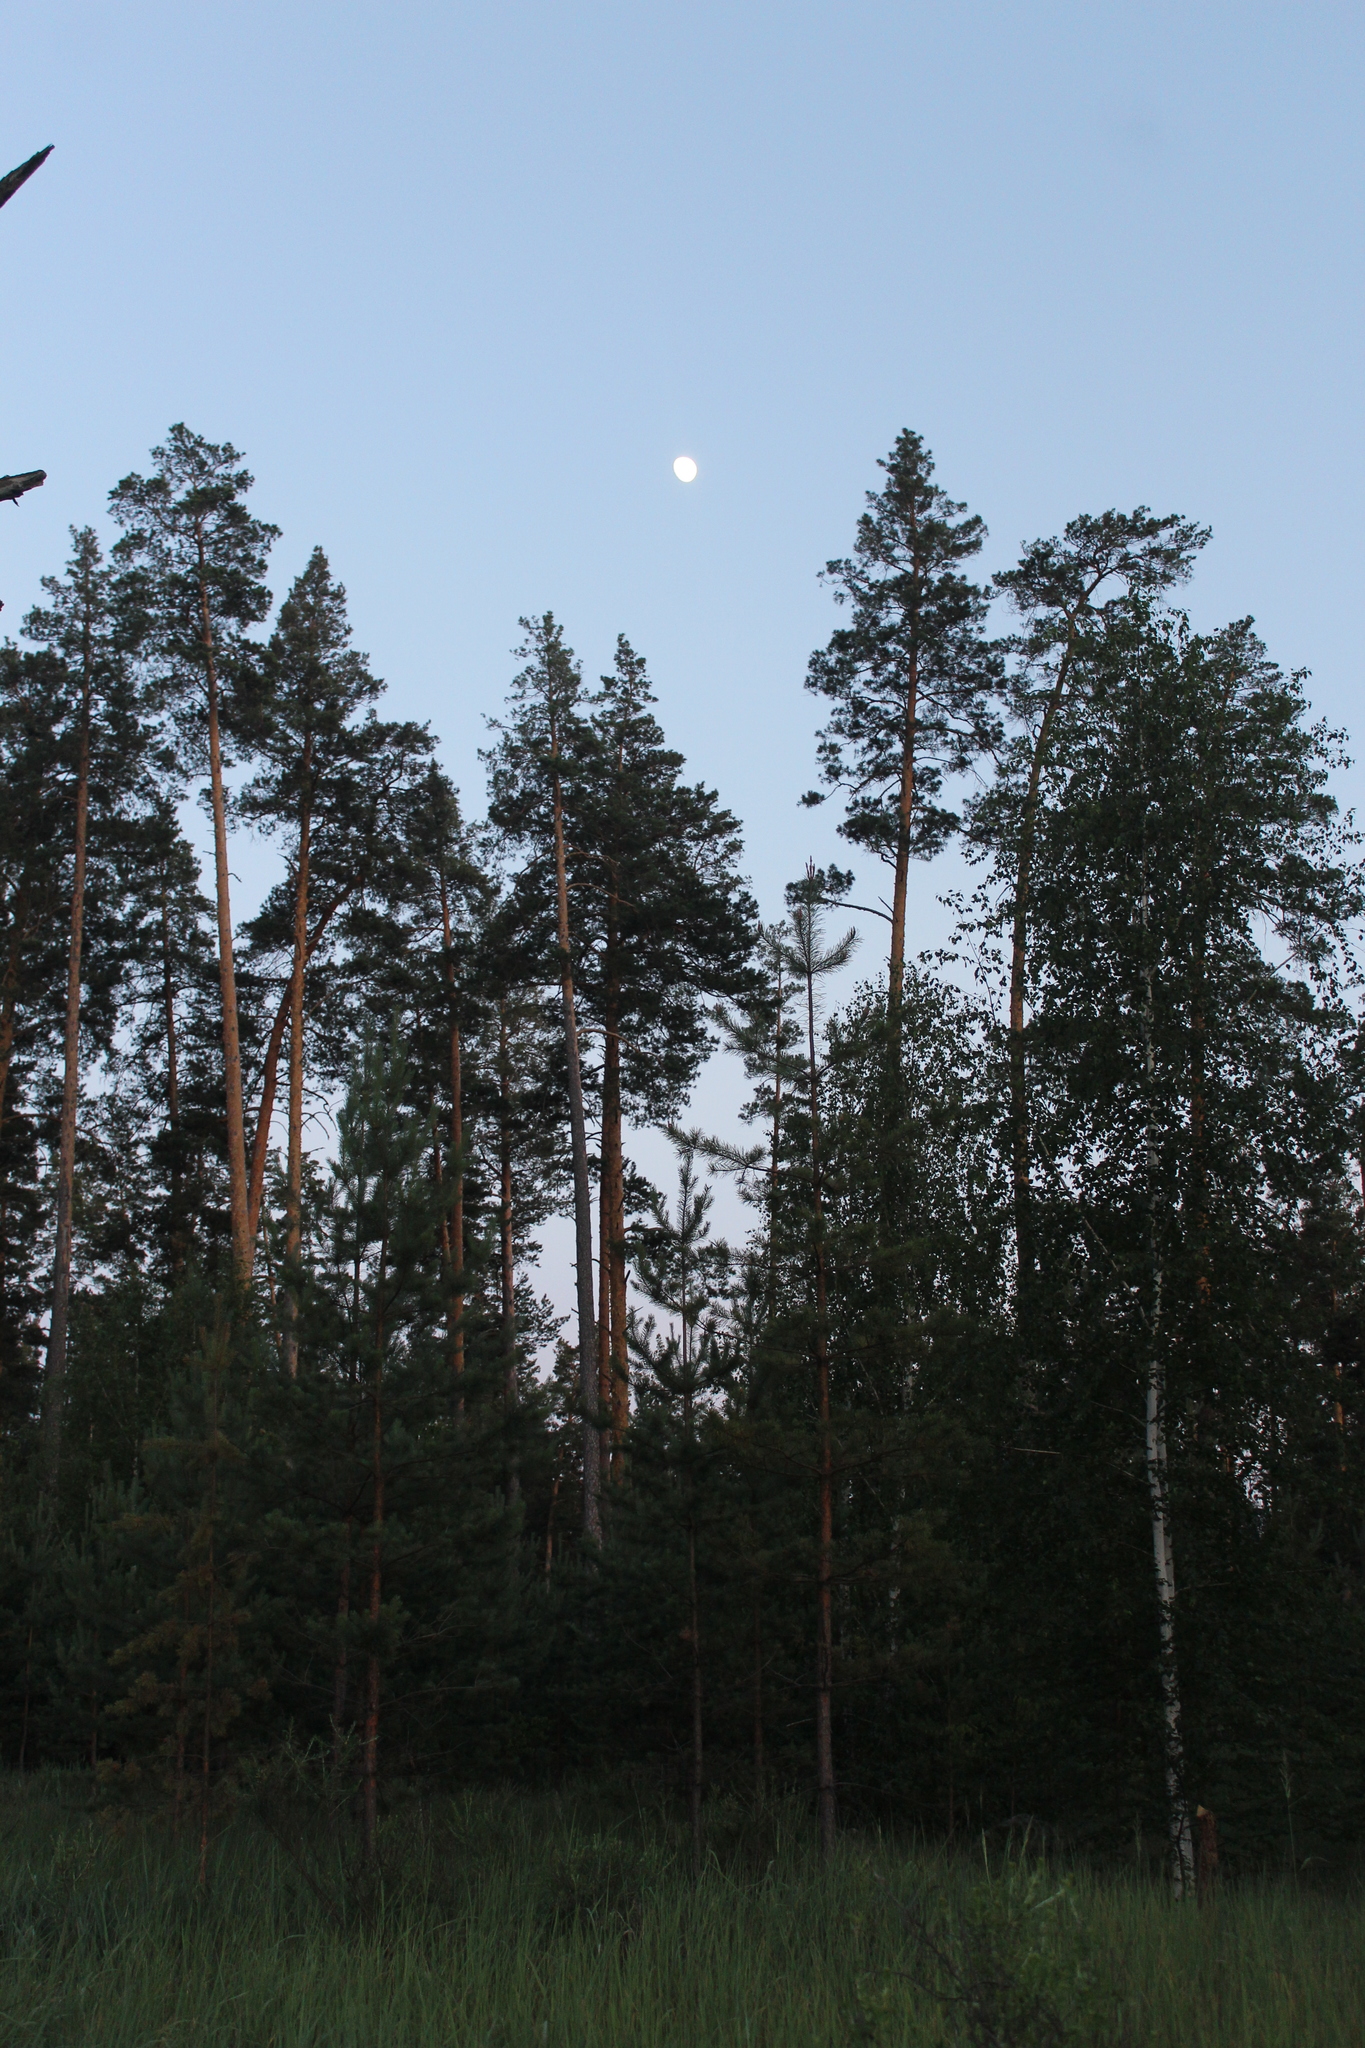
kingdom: Plantae
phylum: Tracheophyta
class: Pinopsida
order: Pinales
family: Pinaceae
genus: Pinus
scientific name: Pinus sylvestris
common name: Scots pine
